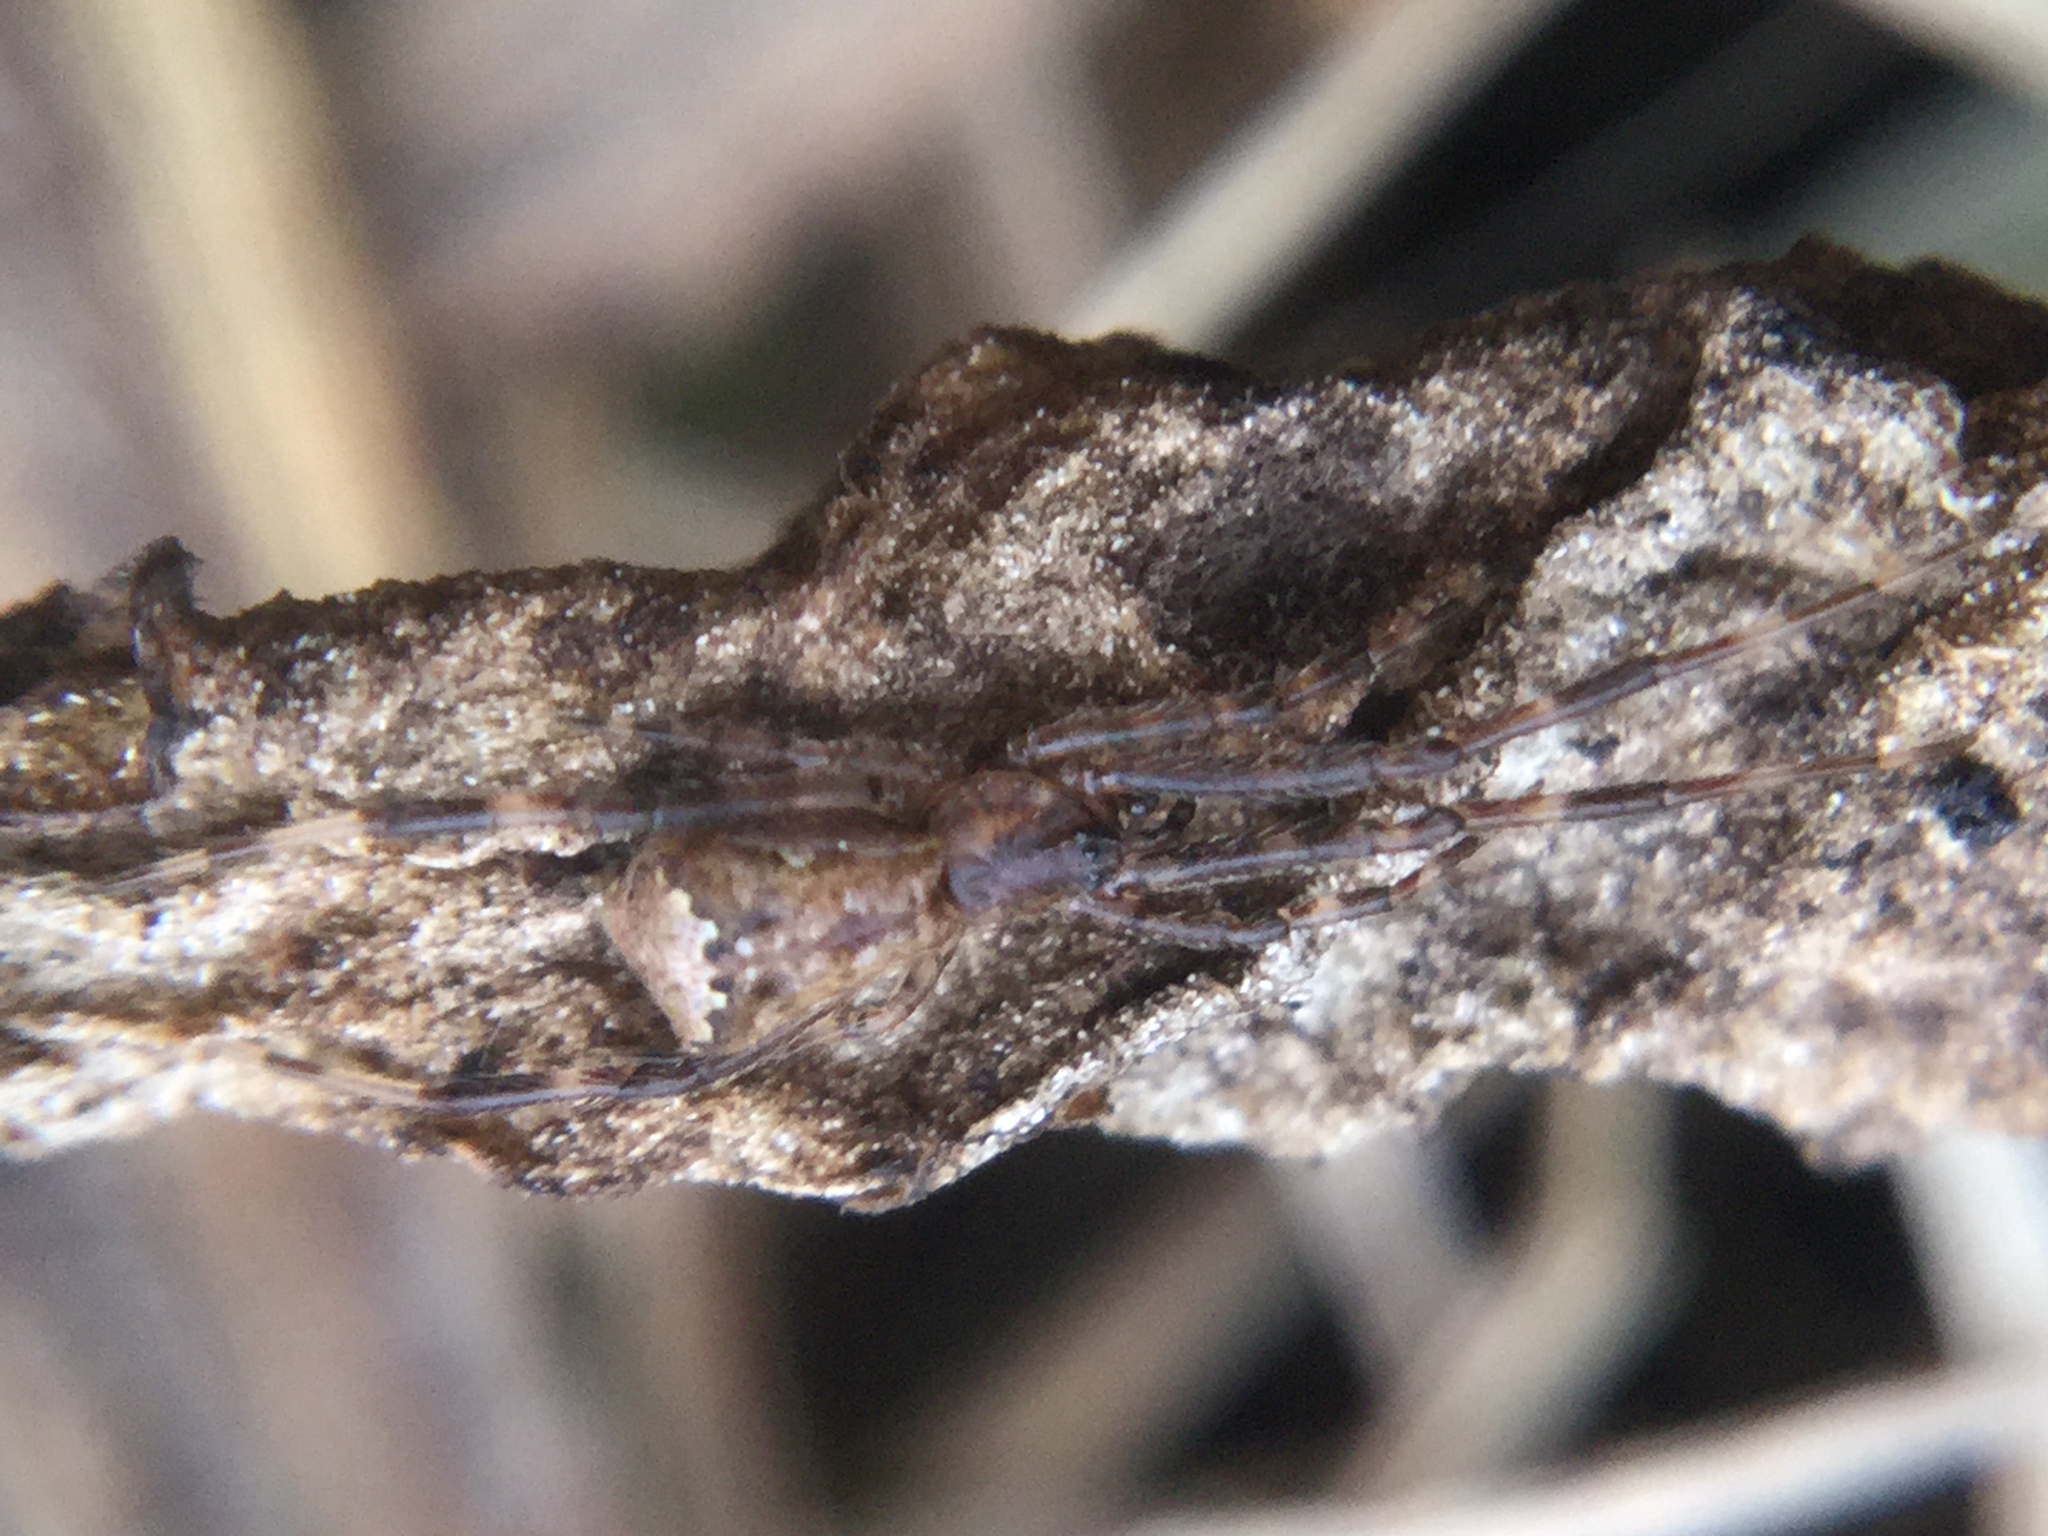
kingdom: Animalia
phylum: Arthropoda
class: Arachnida
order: Araneae
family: Theridiidae
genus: Episinus
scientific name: Episinus amoenus
